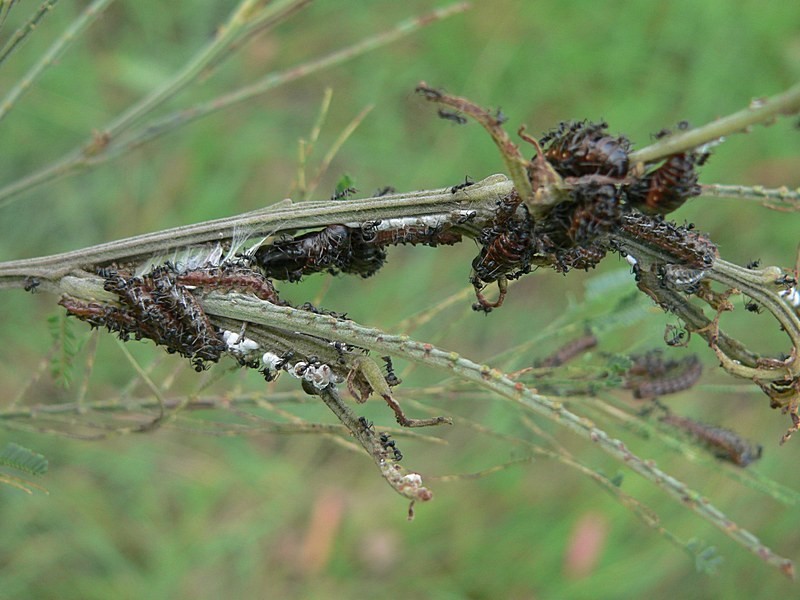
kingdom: Animalia
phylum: Arthropoda
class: Insecta
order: Lepidoptera
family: Lycaenidae
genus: Jalmenus
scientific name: Jalmenus evagoras
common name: Common imperial blue
